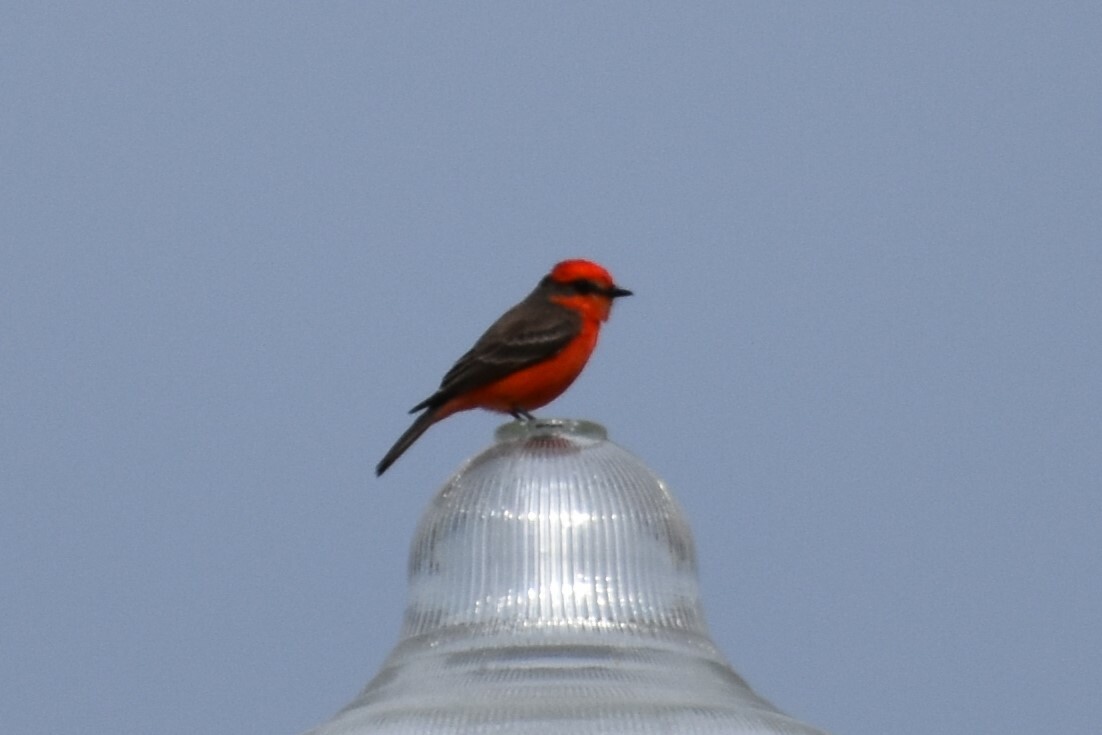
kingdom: Animalia
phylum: Chordata
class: Aves
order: Passeriformes
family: Tyrannidae
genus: Pyrocephalus
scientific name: Pyrocephalus rubinus
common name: Vermilion flycatcher
